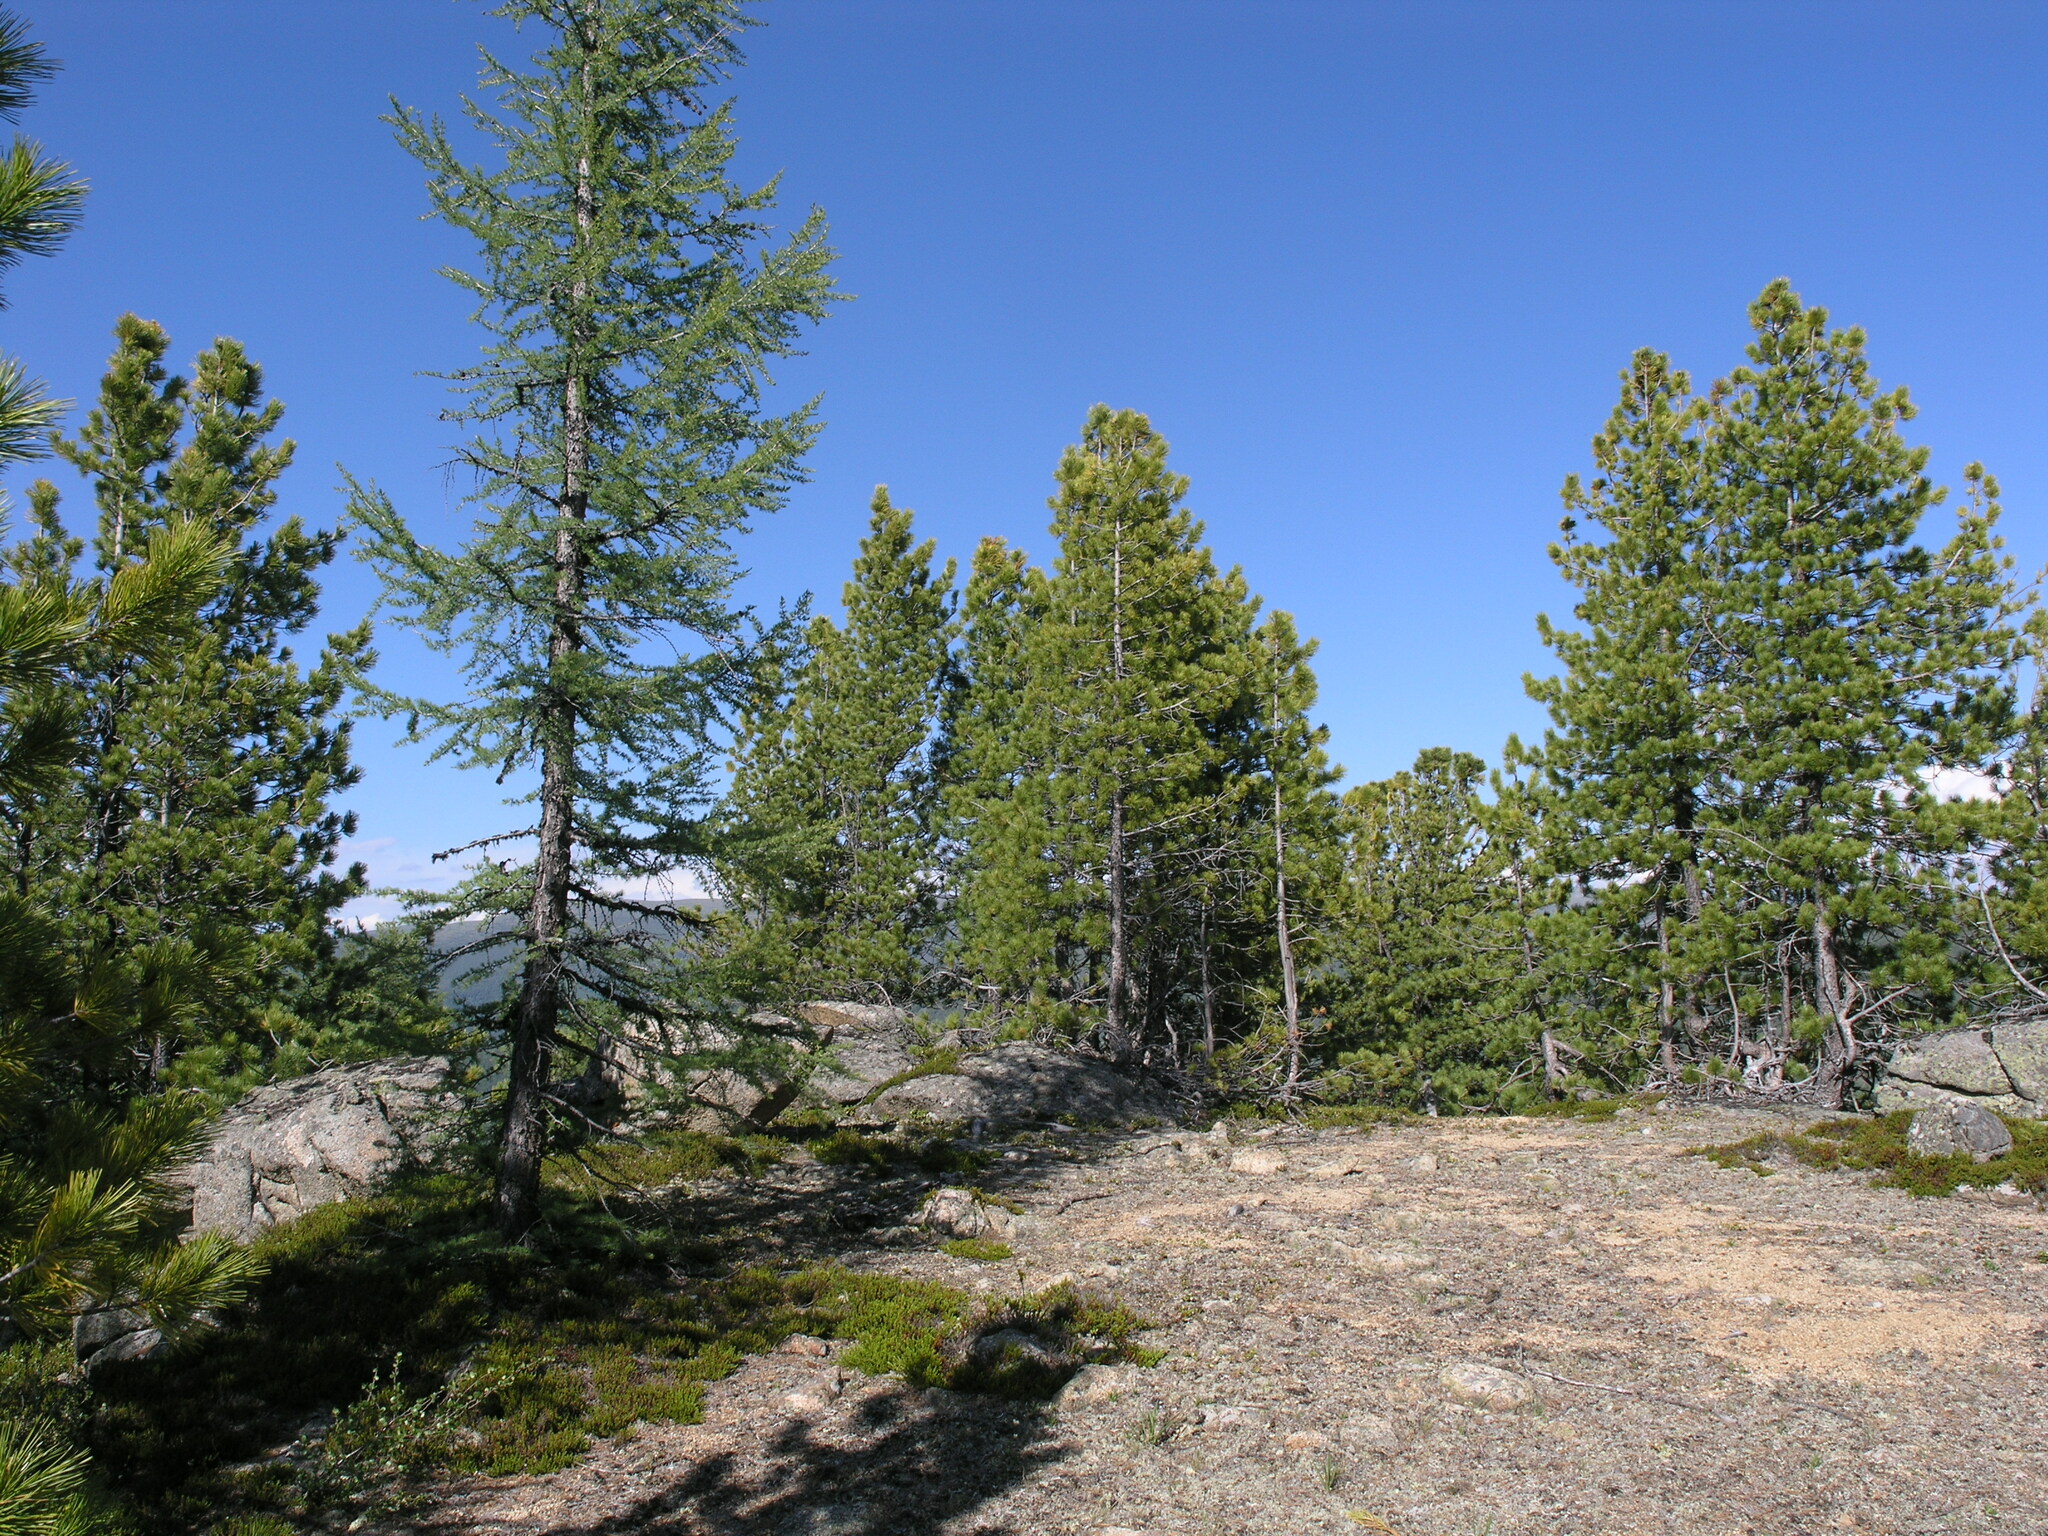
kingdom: Plantae
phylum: Tracheophyta
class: Pinopsida
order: Pinales
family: Pinaceae
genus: Larix
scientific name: Larix sibirica
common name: Siberian larch
